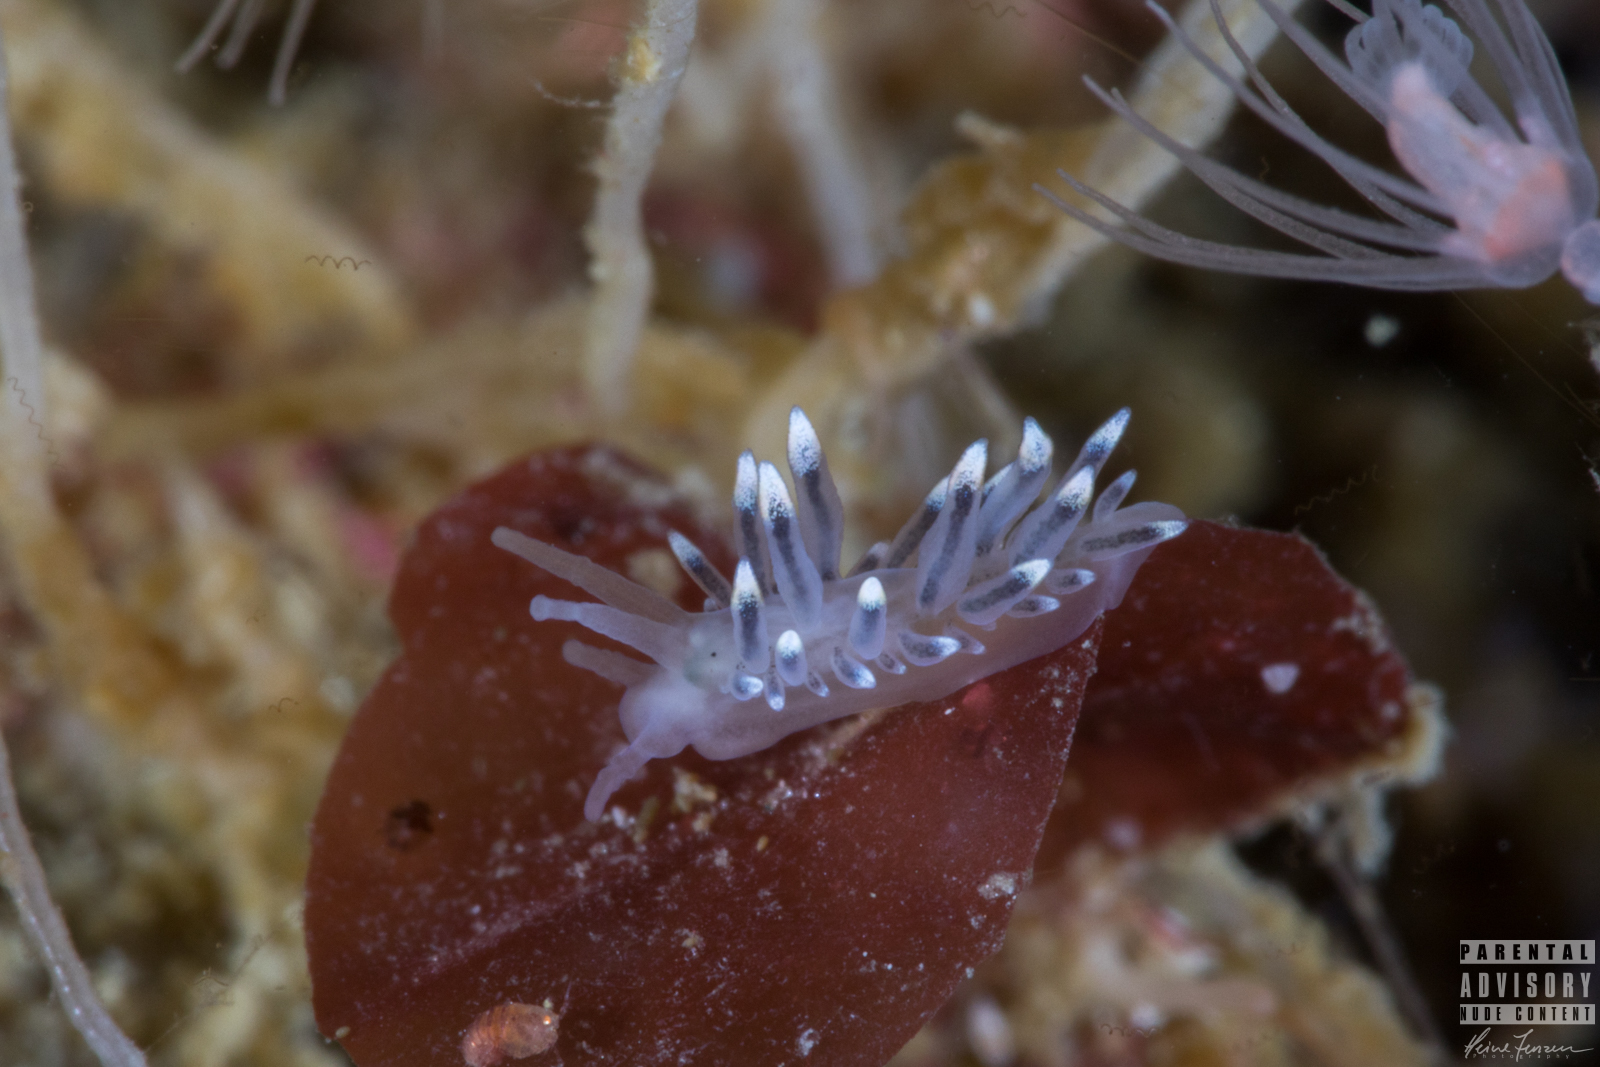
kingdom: Animalia
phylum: Mollusca
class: Gastropoda
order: Nudibranchia
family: Eubranchidae
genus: Eubranchus
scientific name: Eubranchus tricolor
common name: Painted balloon aeolis
